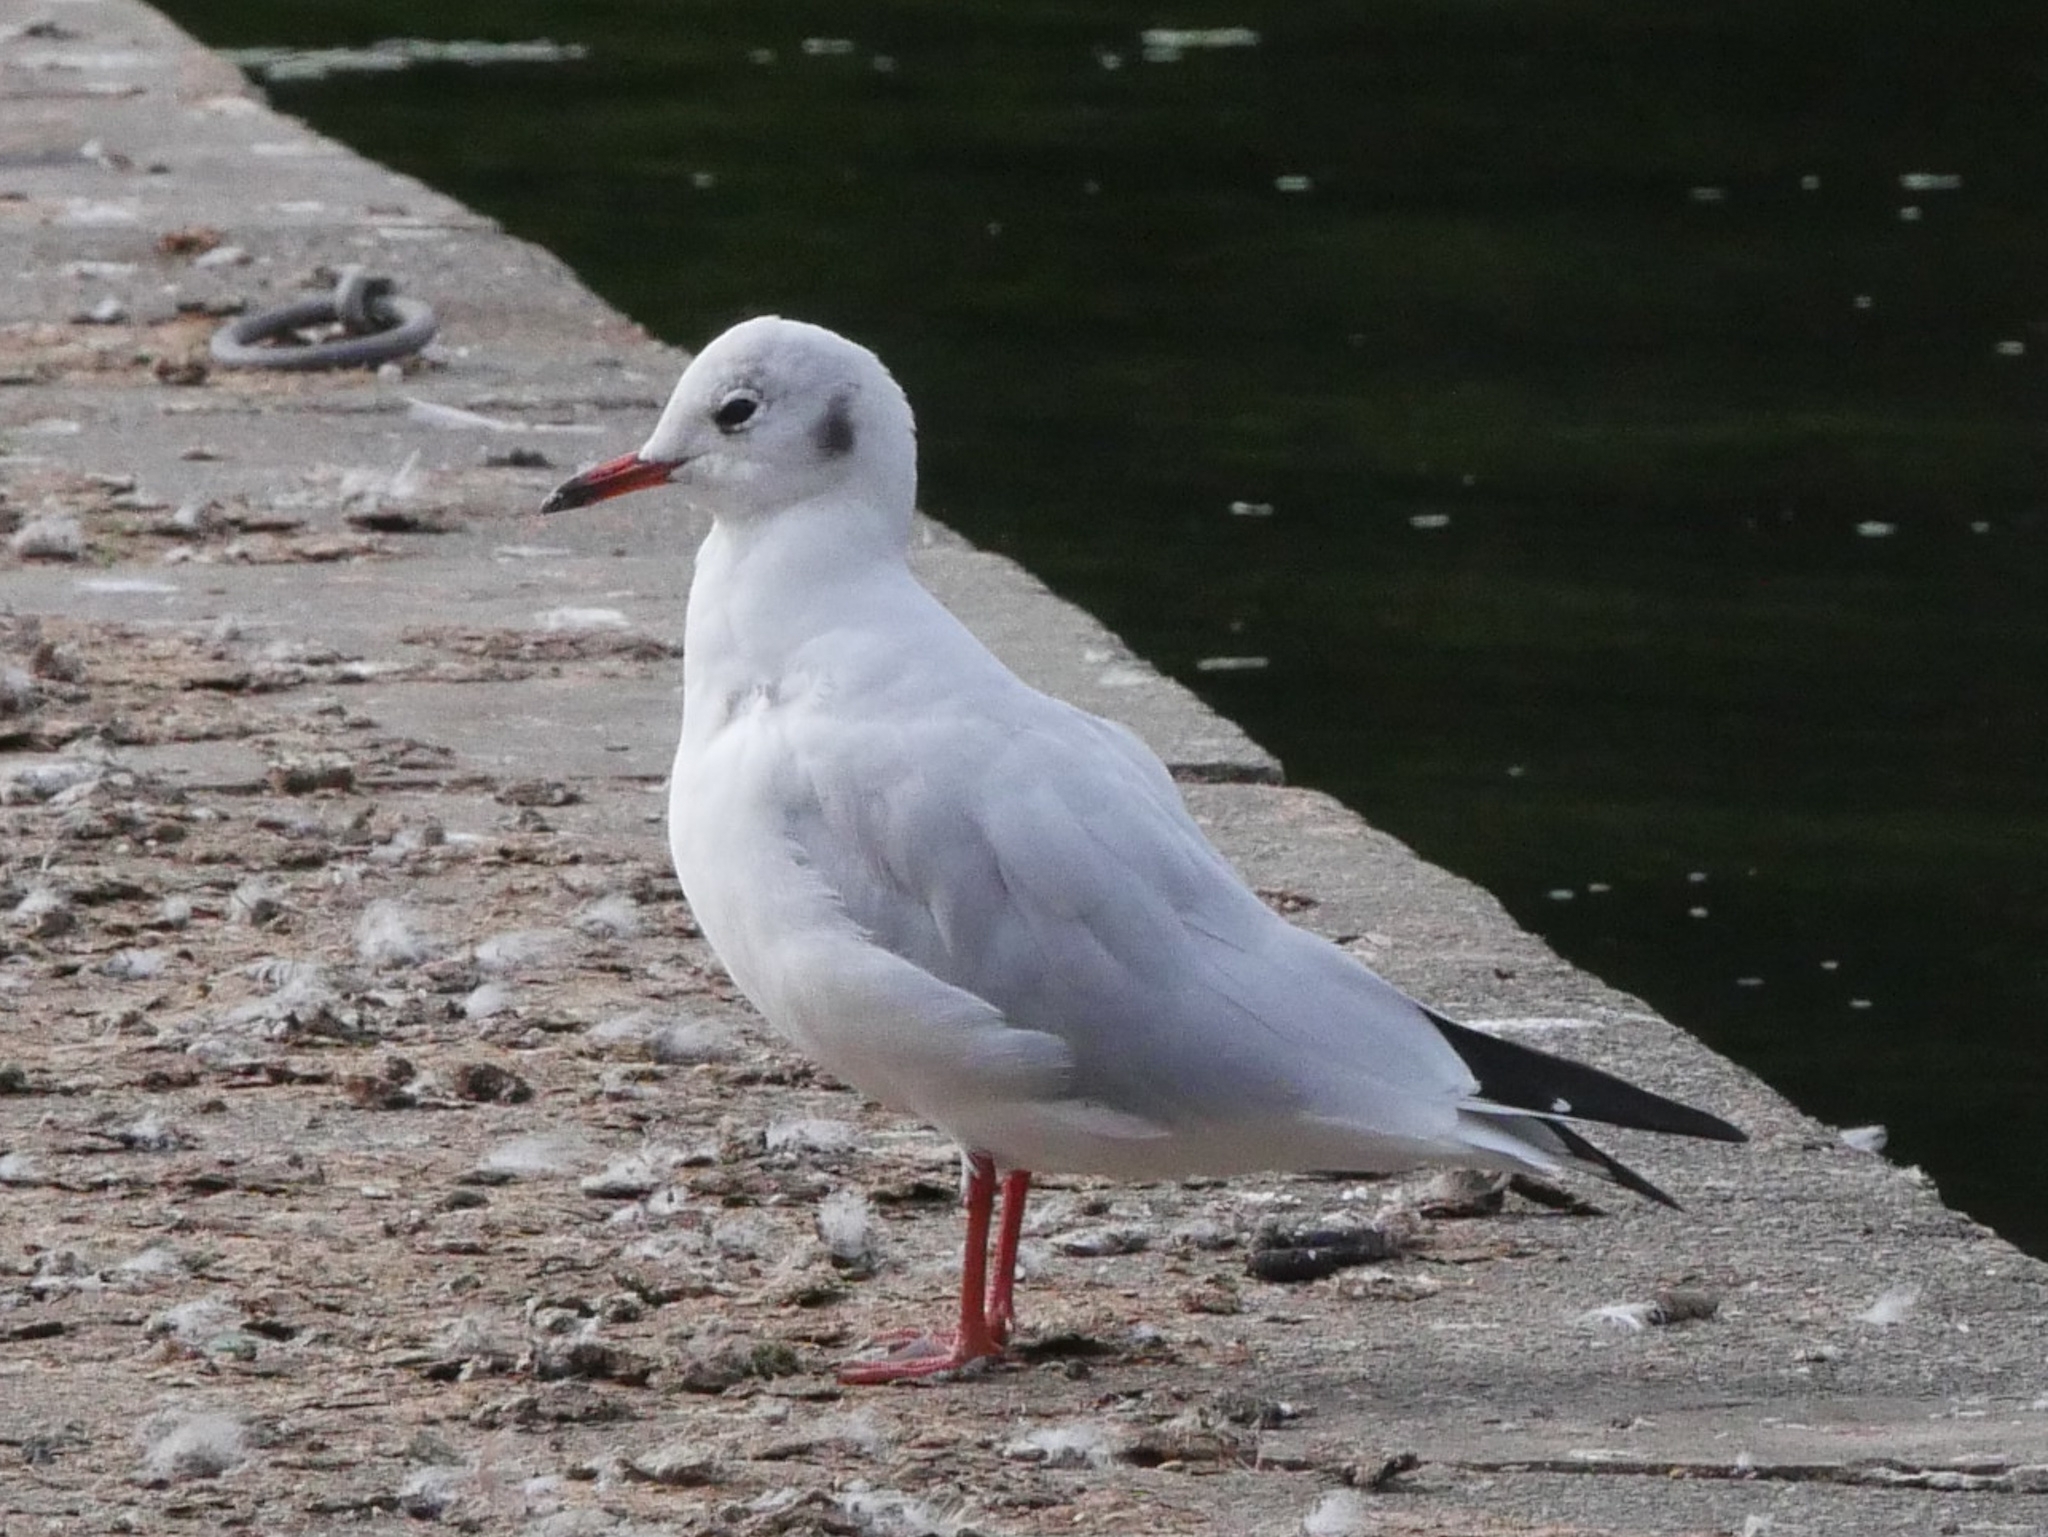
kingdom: Animalia
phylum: Chordata
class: Aves
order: Charadriiformes
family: Laridae
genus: Chroicocephalus
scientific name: Chroicocephalus ridibundus
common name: Black-headed gull
